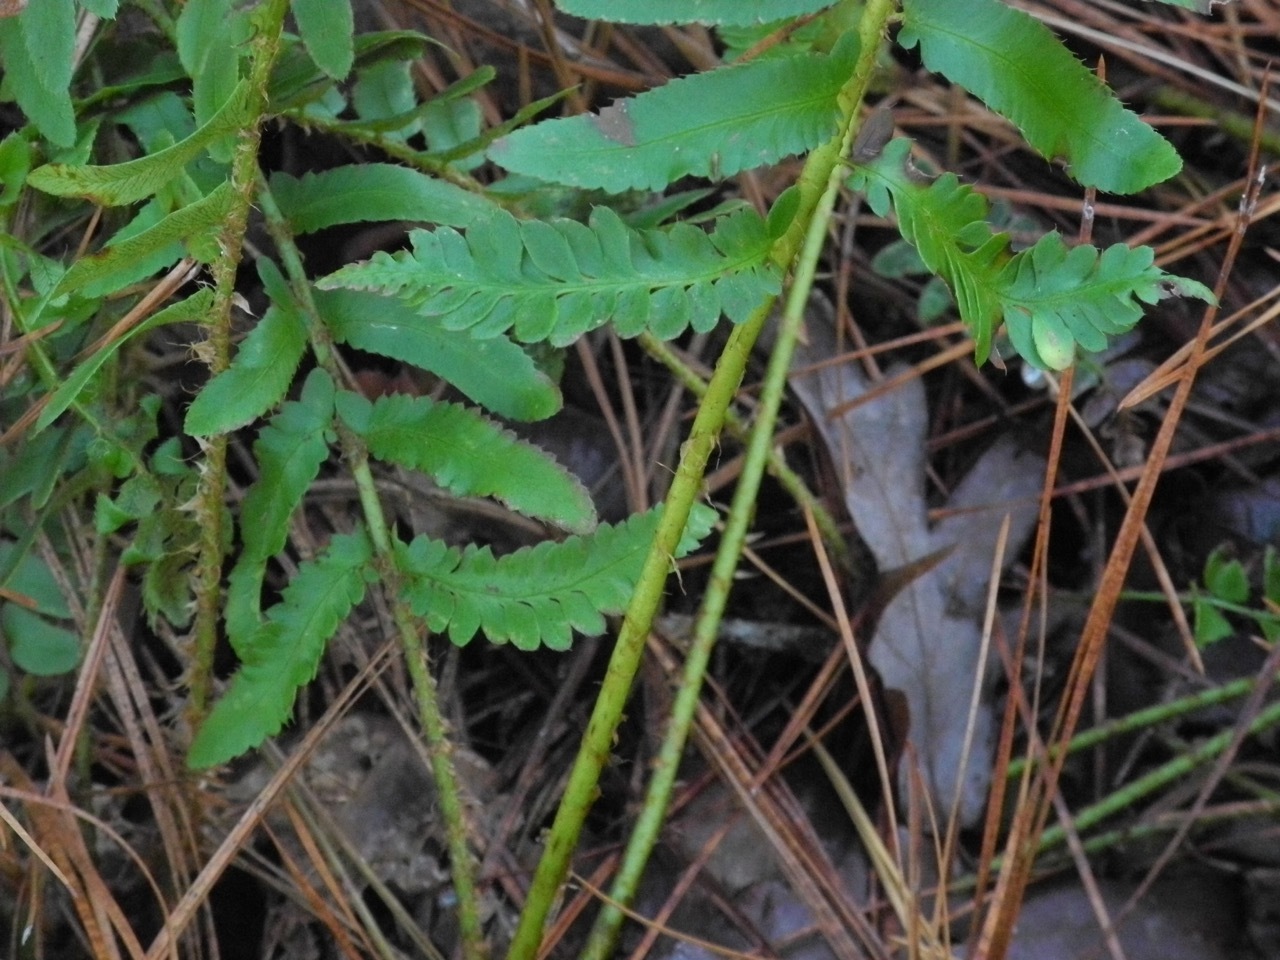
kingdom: Plantae
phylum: Tracheophyta
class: Polypodiopsida
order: Polypodiales
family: Dryopteridaceae
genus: Polystichum
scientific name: Polystichum acrostichoides
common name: Christmas fern
